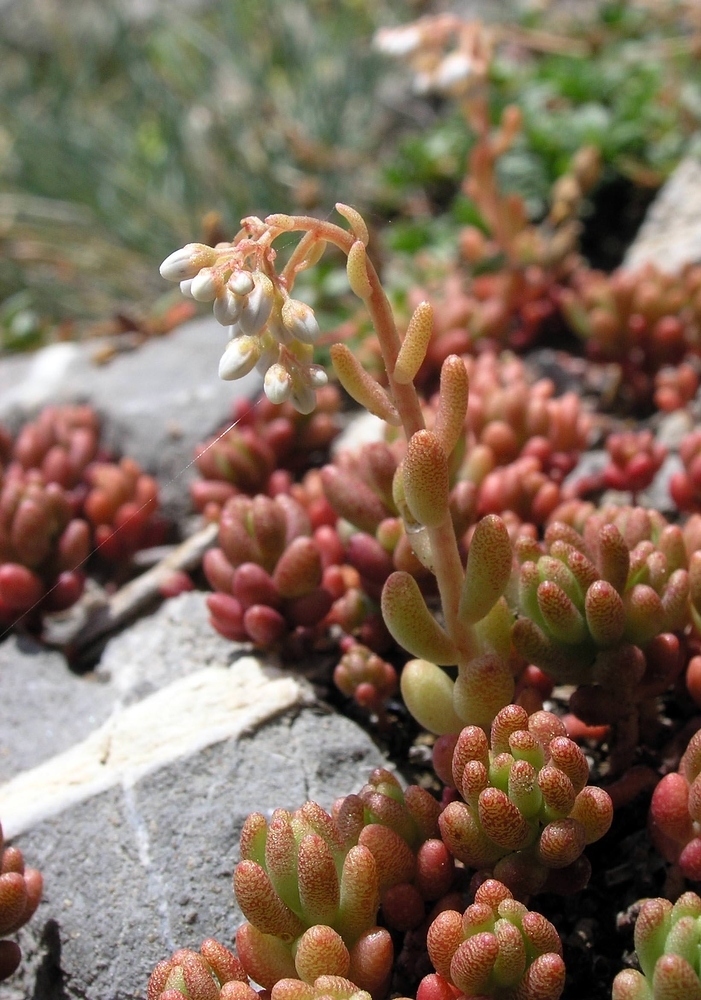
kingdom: Plantae
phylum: Tracheophyta
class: Magnoliopsida
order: Saxifragales
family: Crassulaceae
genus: Sedum
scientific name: Sedum album
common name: White stonecrop
